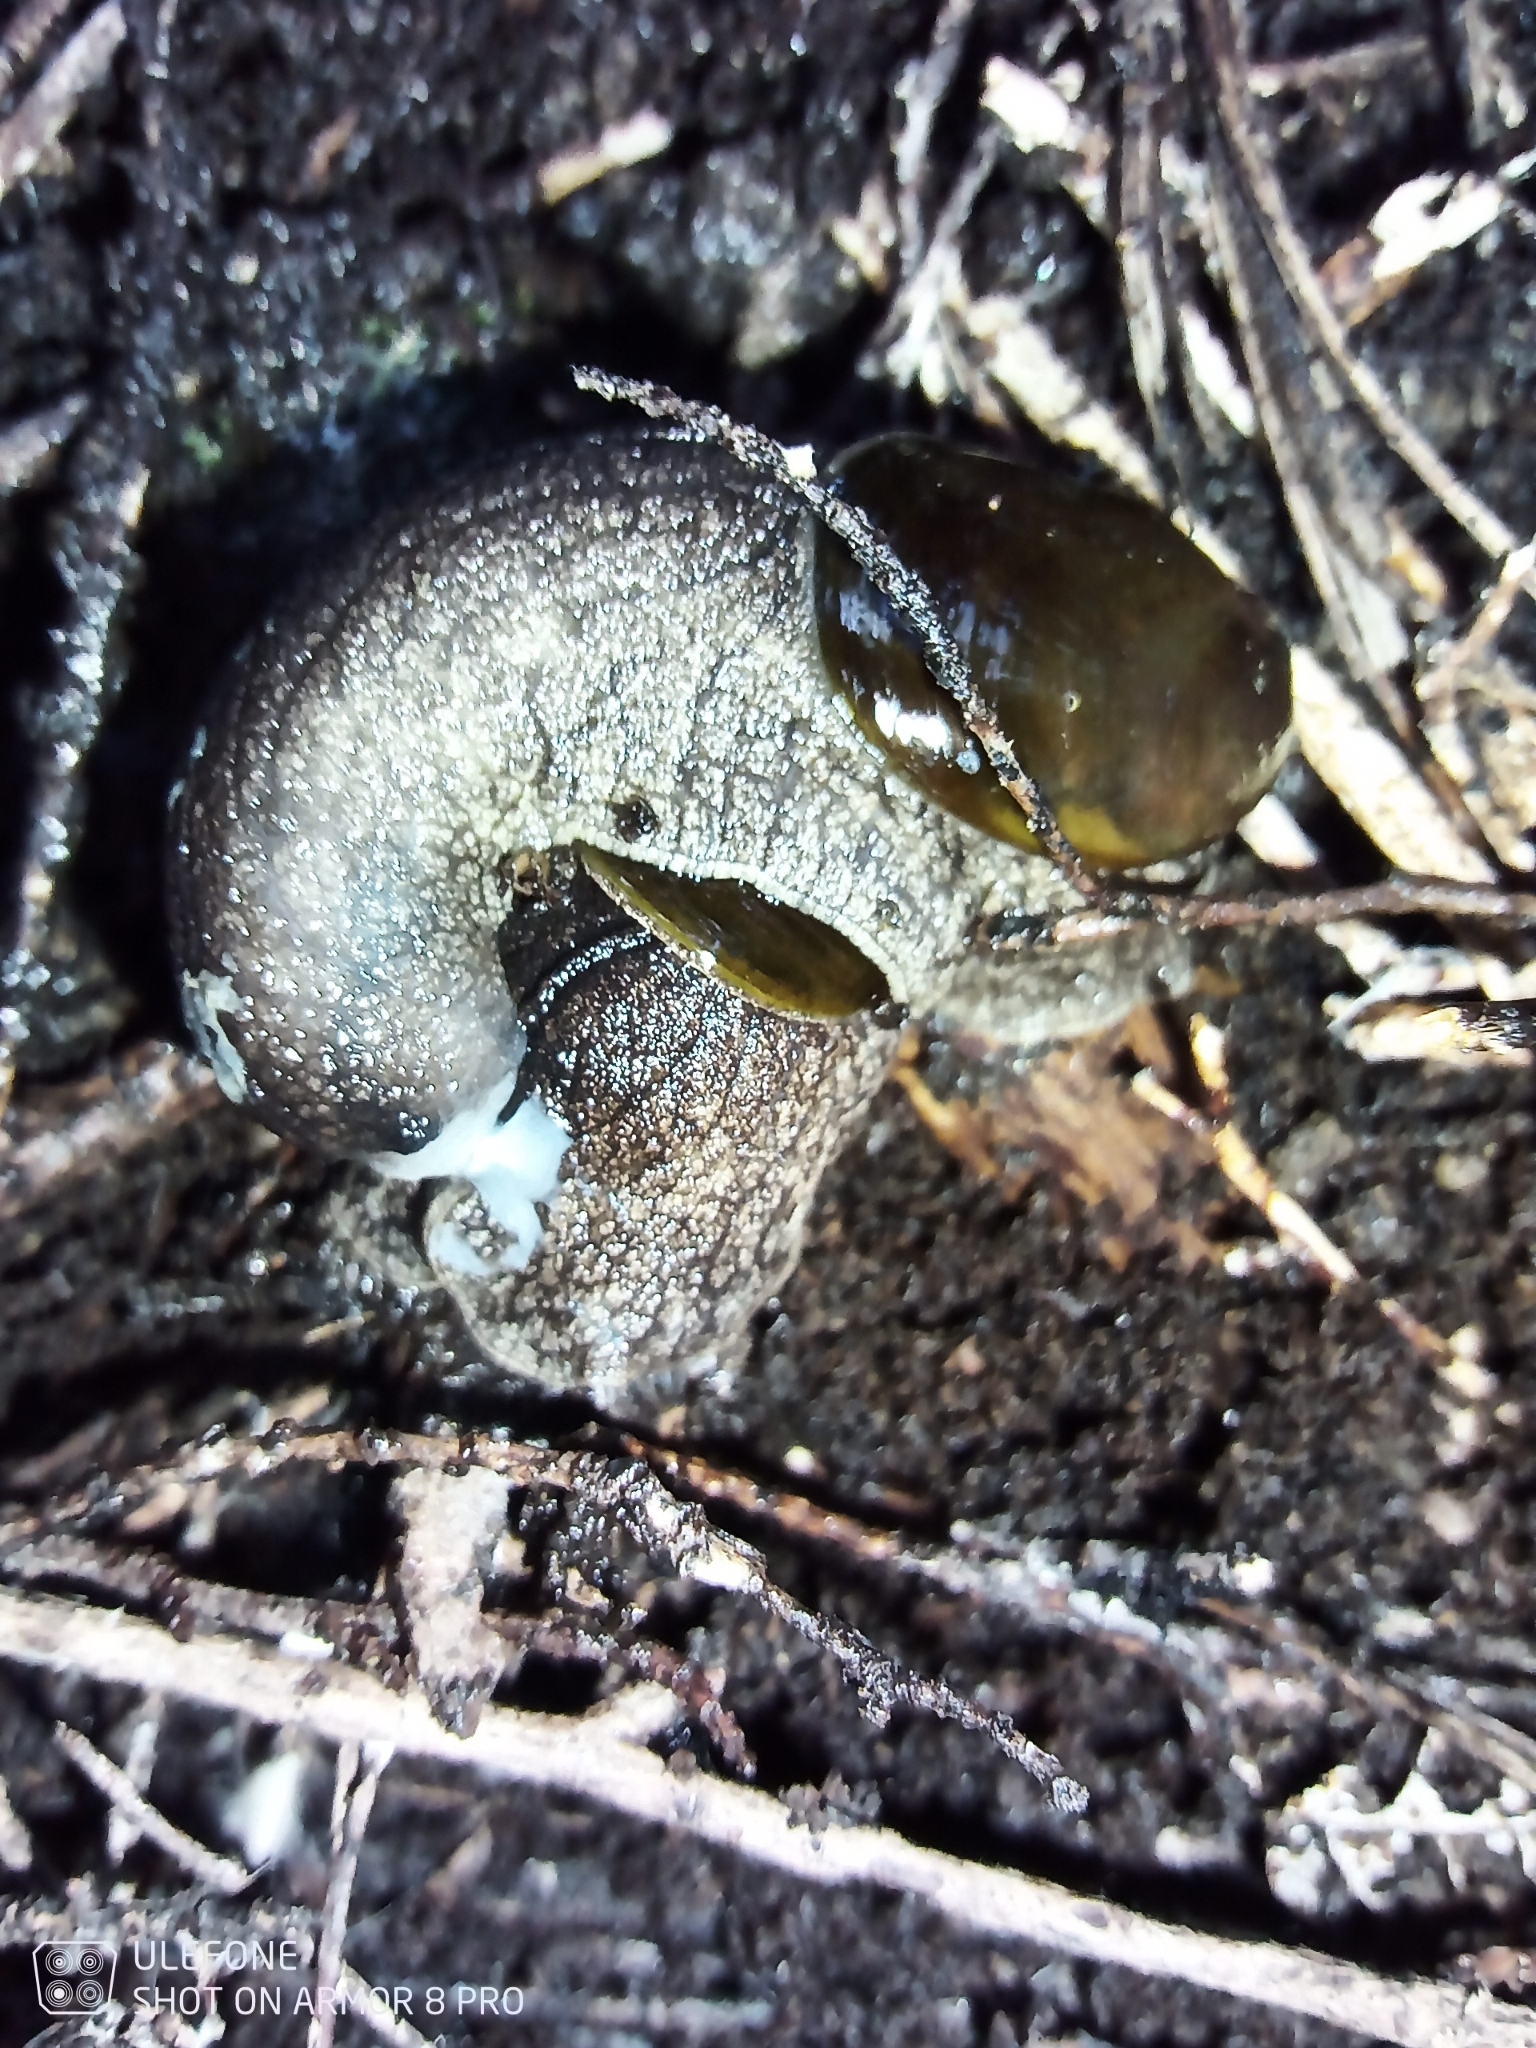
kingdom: Animalia
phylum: Mollusca
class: Gastropoda
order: Stylommatophora
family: Rhytididae
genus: Schizoglossa
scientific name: Schizoglossa novoseelandica
